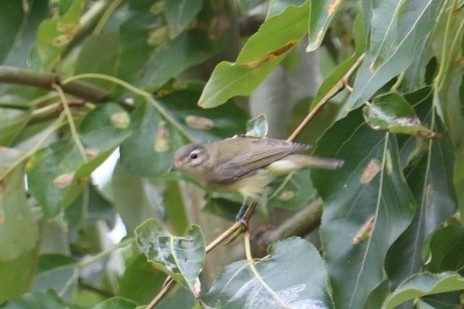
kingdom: Animalia
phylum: Chordata
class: Aves
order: Passeriformes
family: Vireonidae
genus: Vireo
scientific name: Vireo gilvus
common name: Warbling vireo
